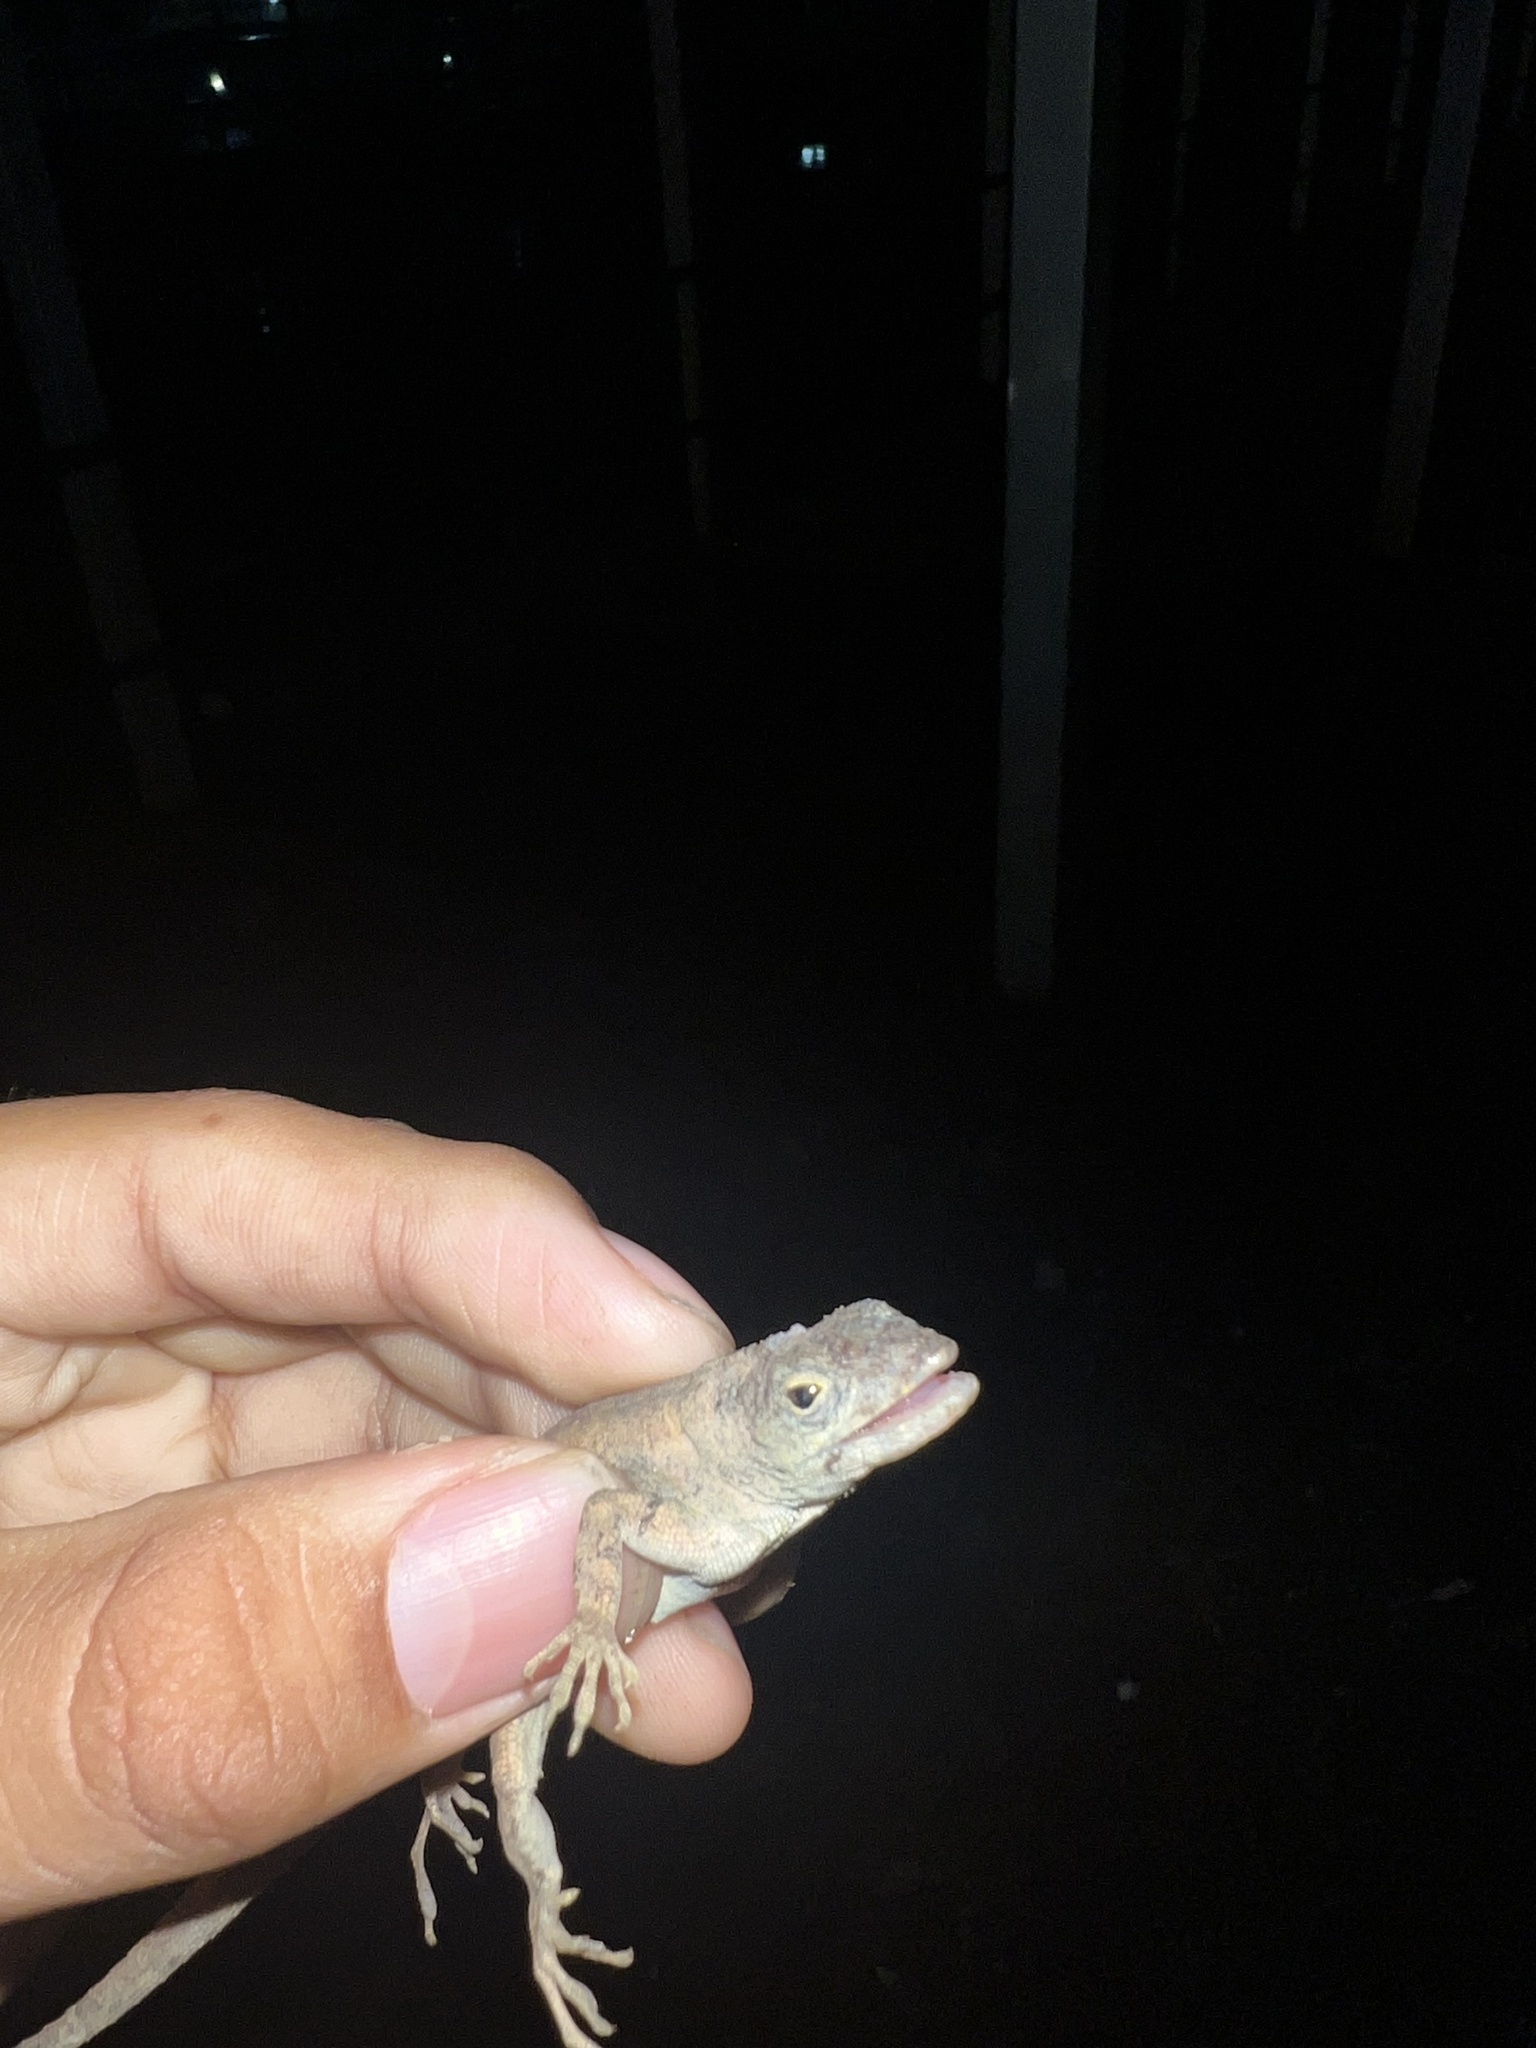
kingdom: Animalia
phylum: Chordata
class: Squamata
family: Dactyloidae
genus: Anolis
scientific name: Anolis sagrei
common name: Brown anole
